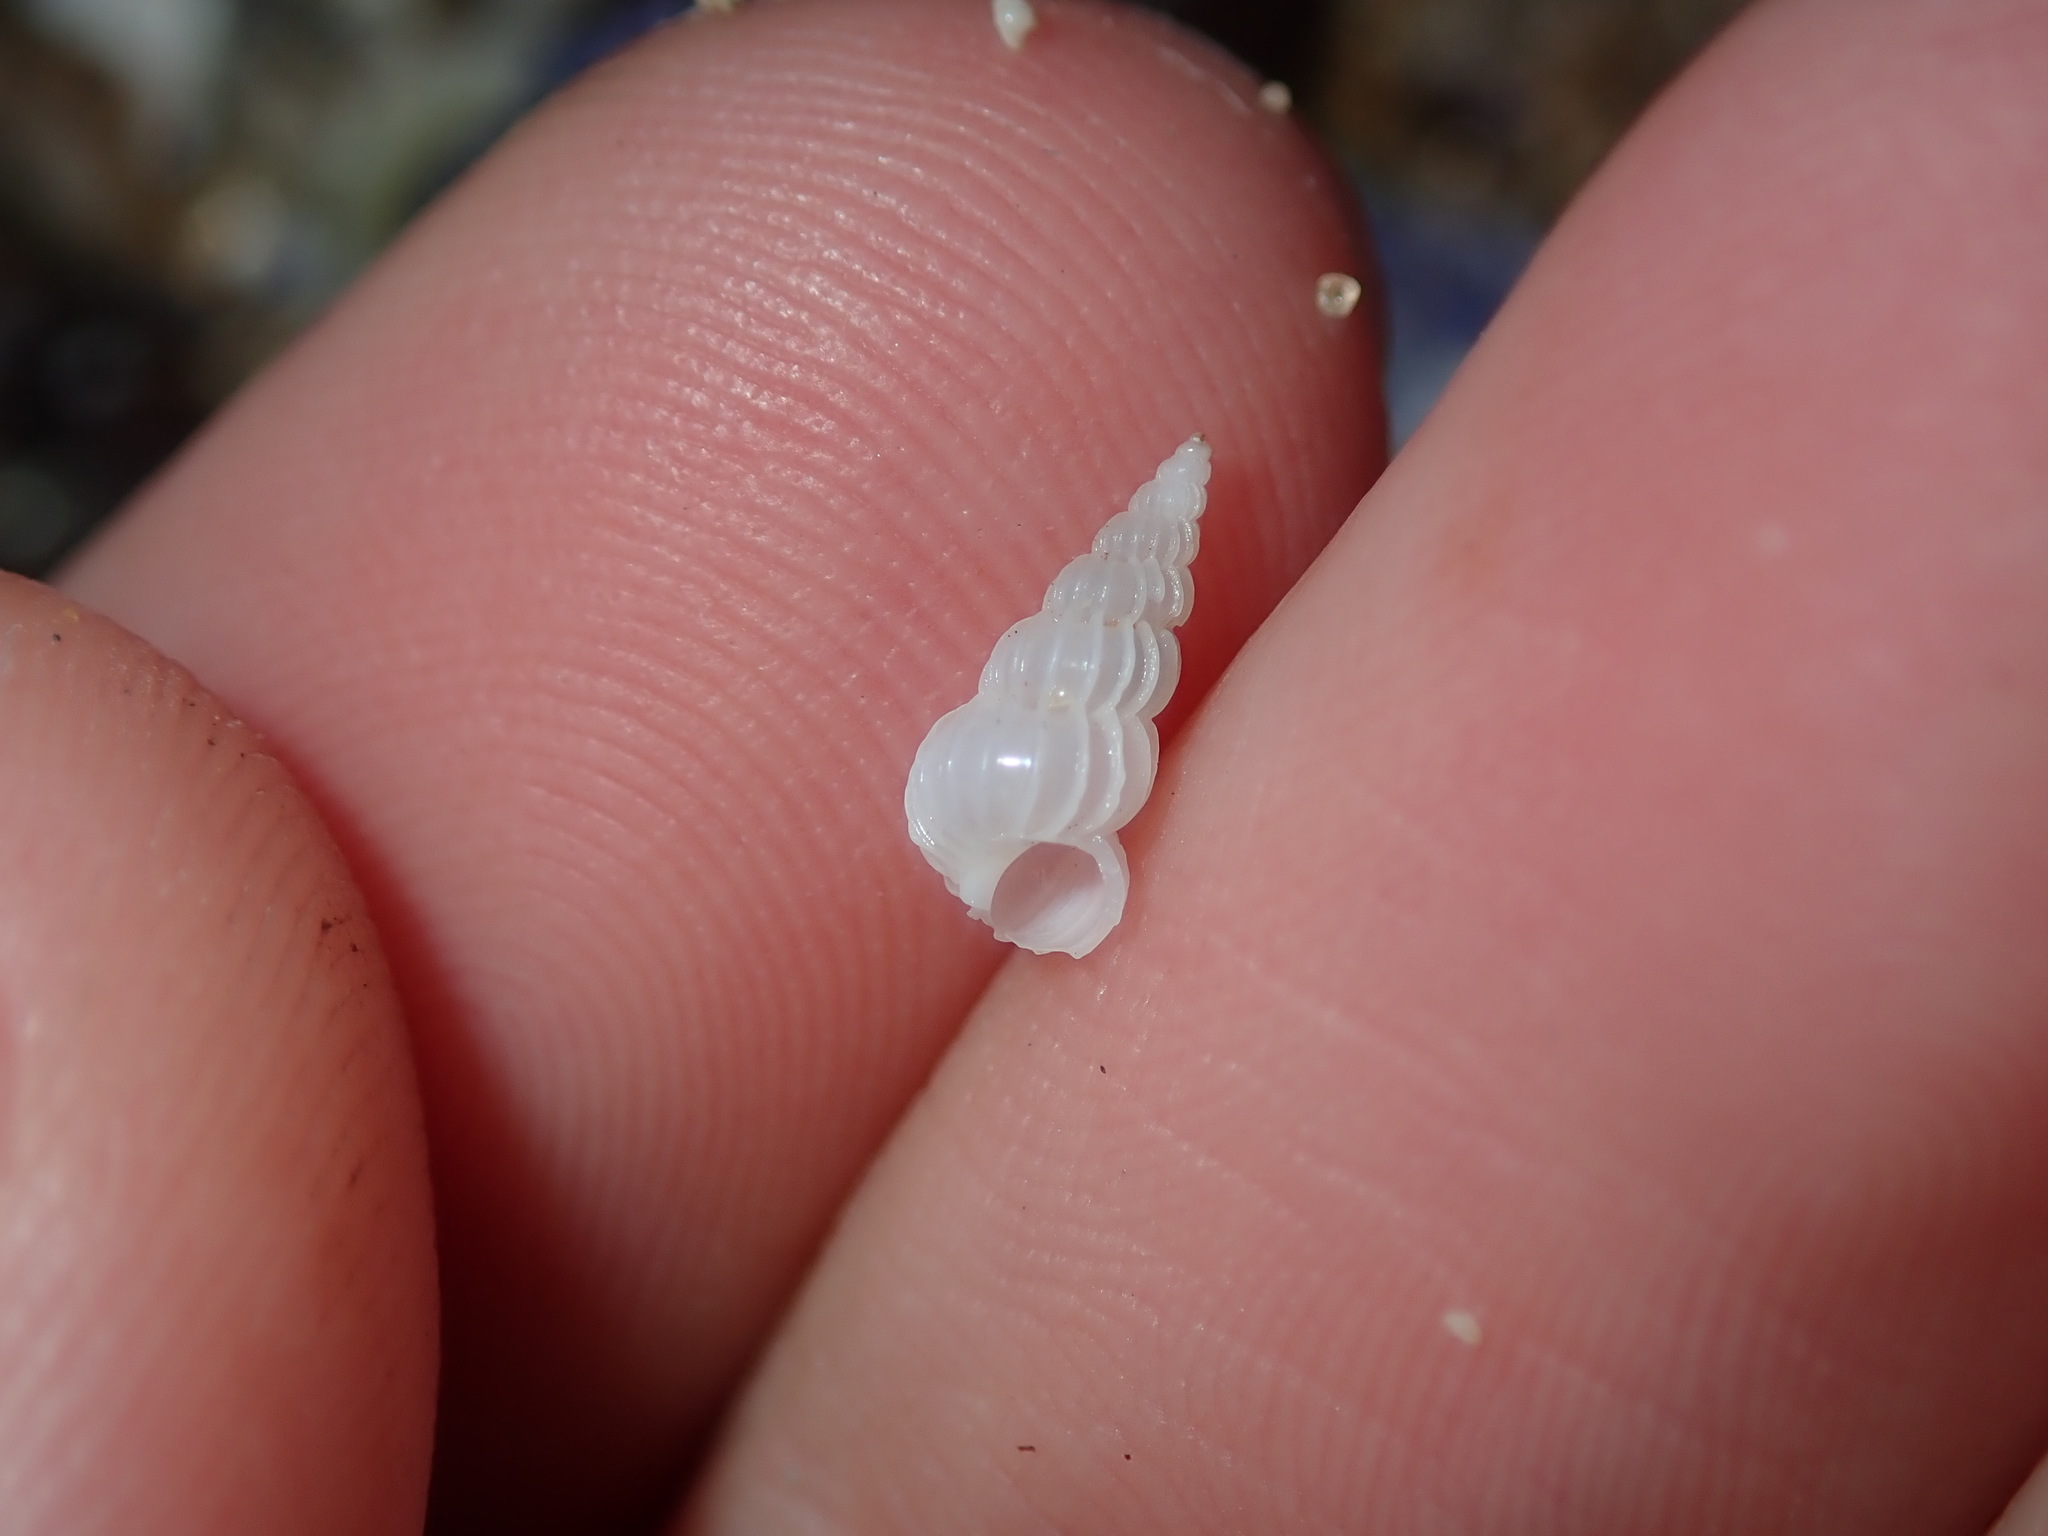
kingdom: Animalia
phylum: Mollusca
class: Gastropoda
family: Epitoniidae
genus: Epitonium
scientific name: Epitonium jukesianum
